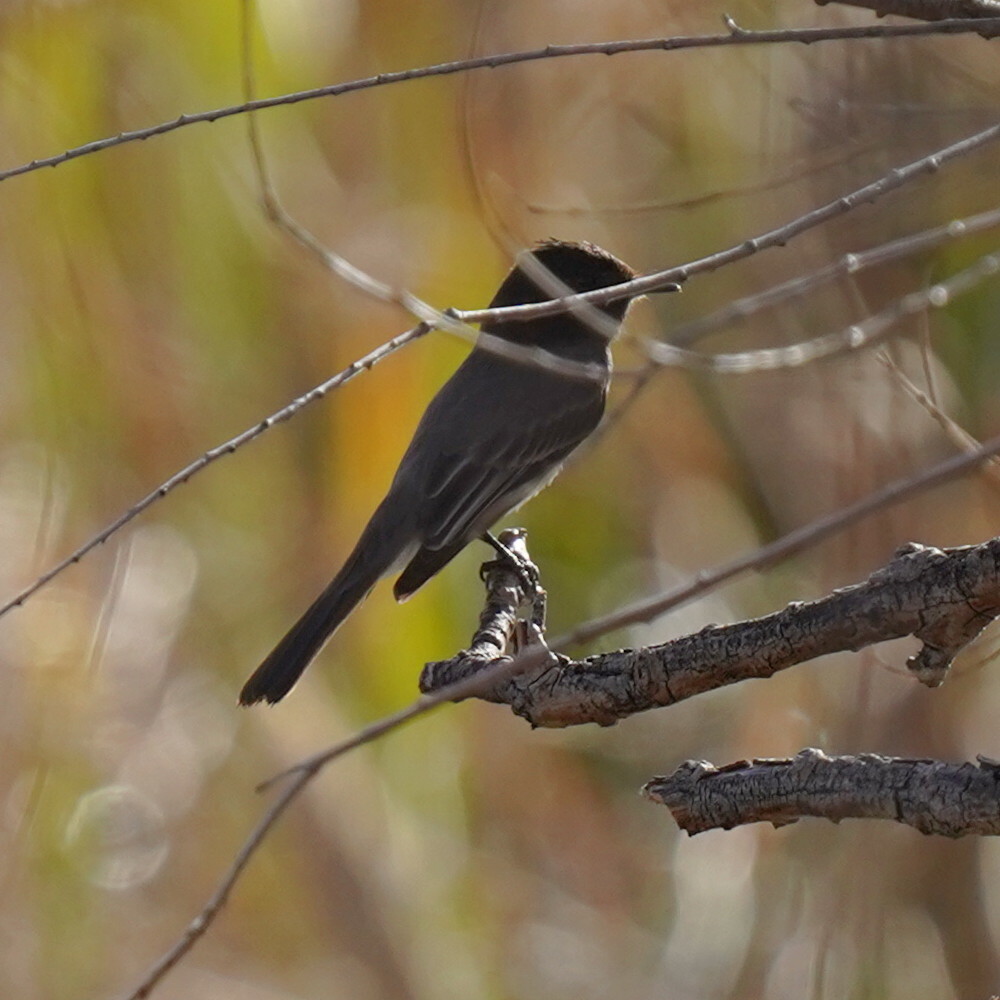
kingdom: Animalia
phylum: Chordata
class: Aves
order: Passeriformes
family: Tyrannidae
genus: Sayornis
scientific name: Sayornis nigricans
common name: Black phoebe
